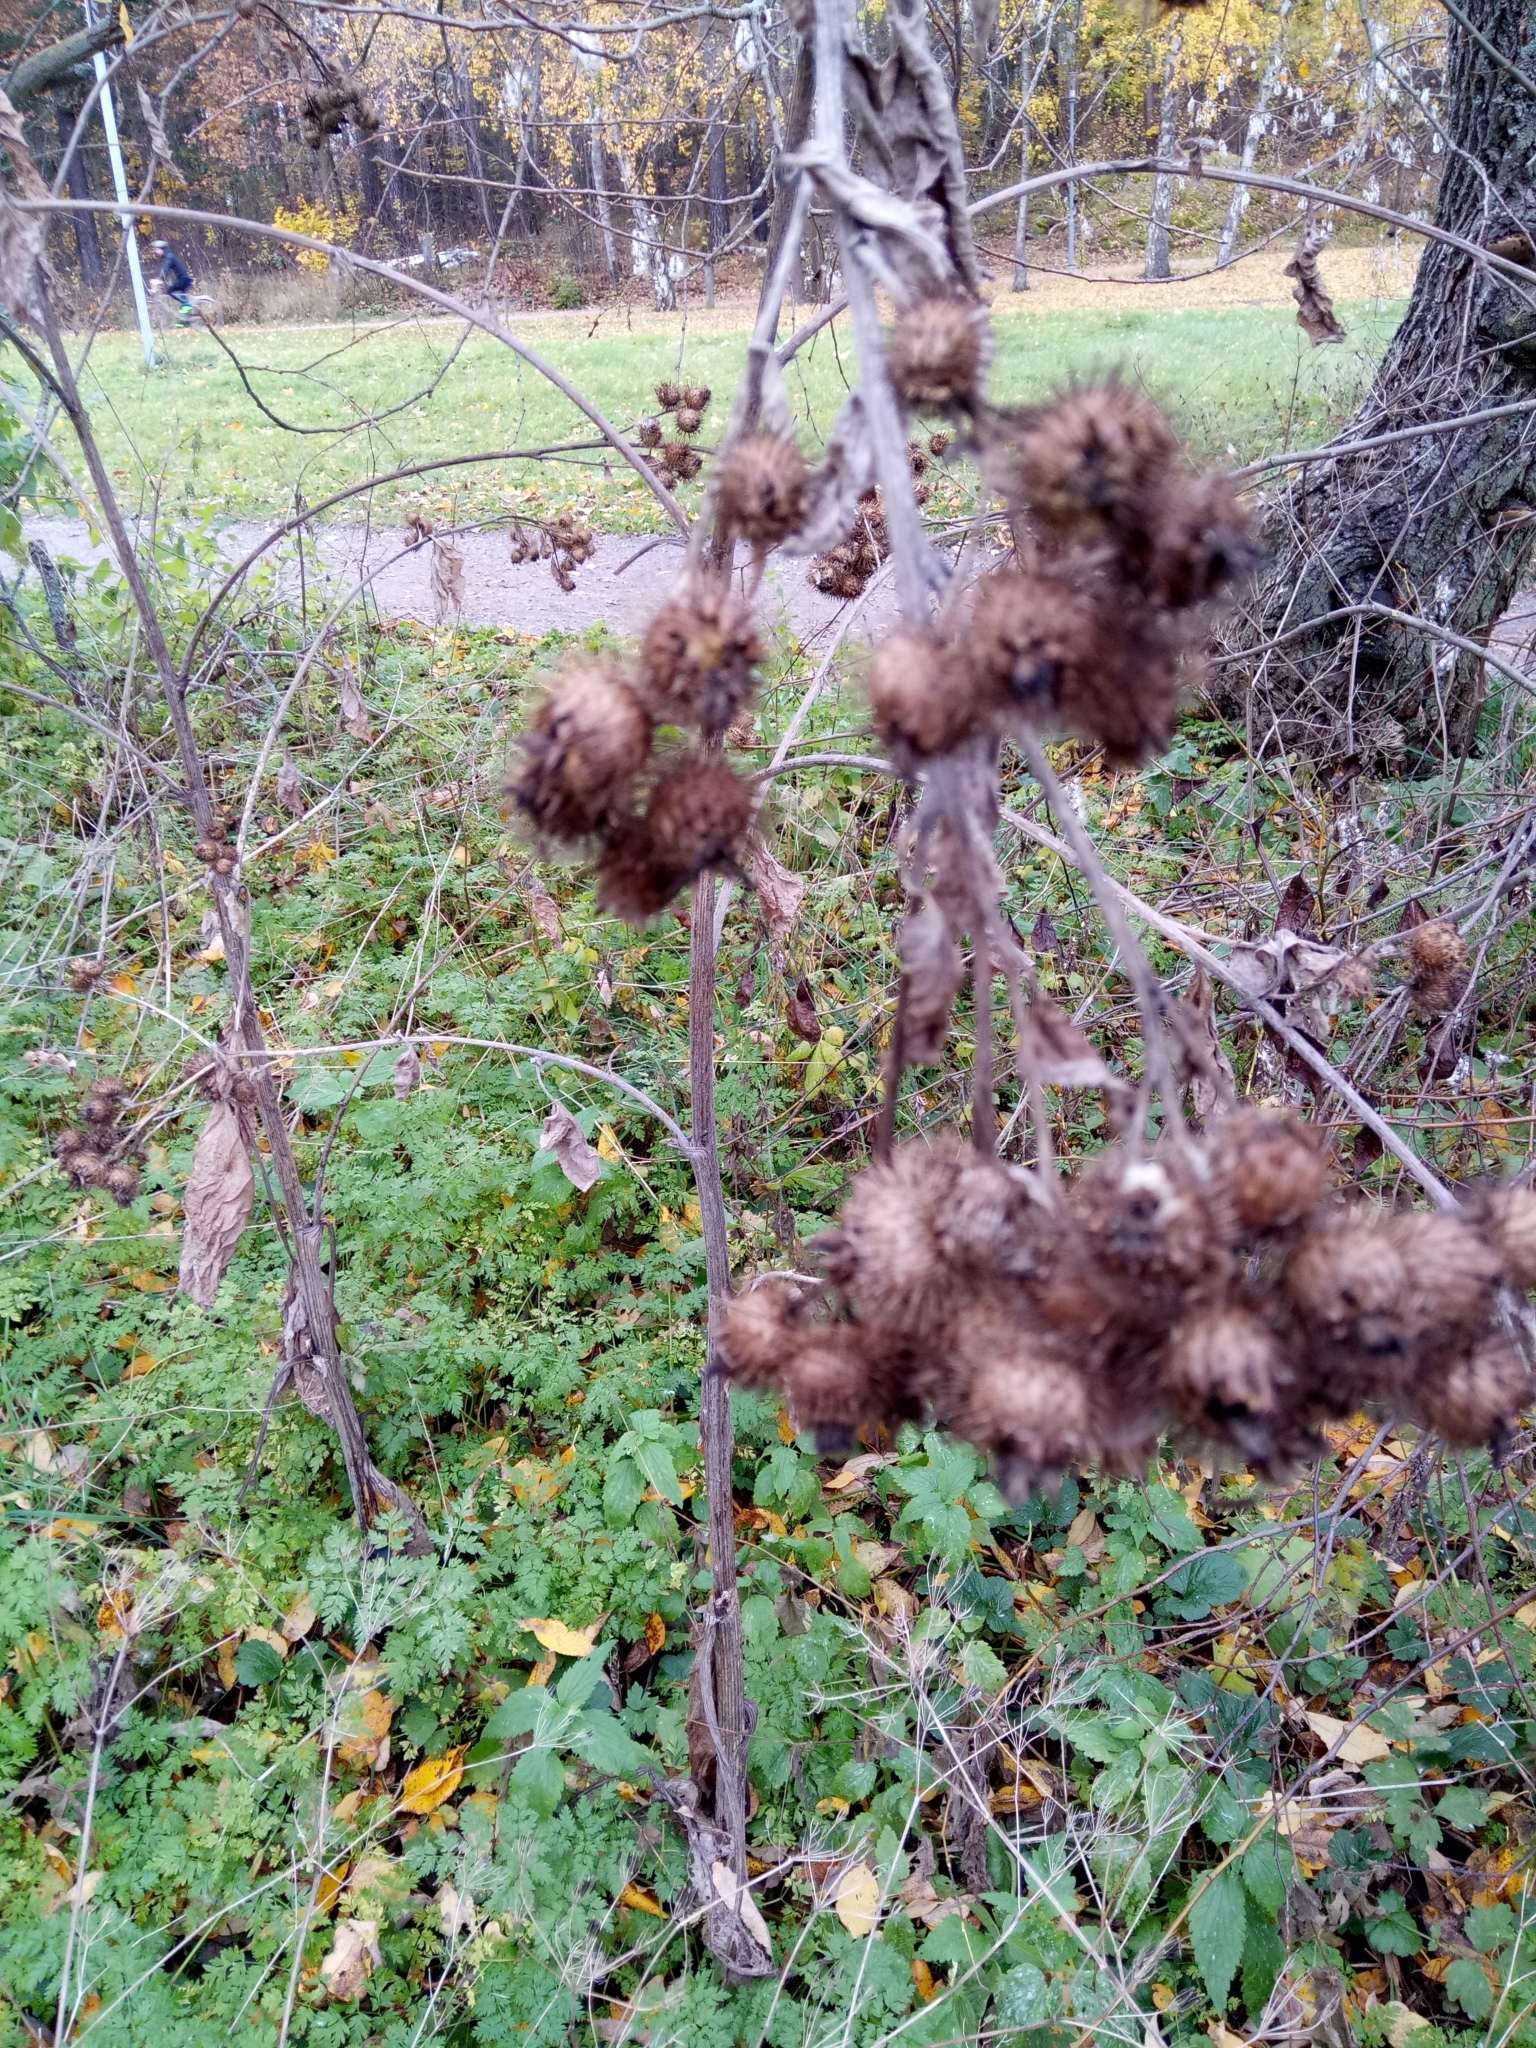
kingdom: Plantae
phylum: Tracheophyta
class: Magnoliopsida
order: Asterales
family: Asteraceae
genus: Arctium
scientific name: Arctium nemorosum
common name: Wood burdock
